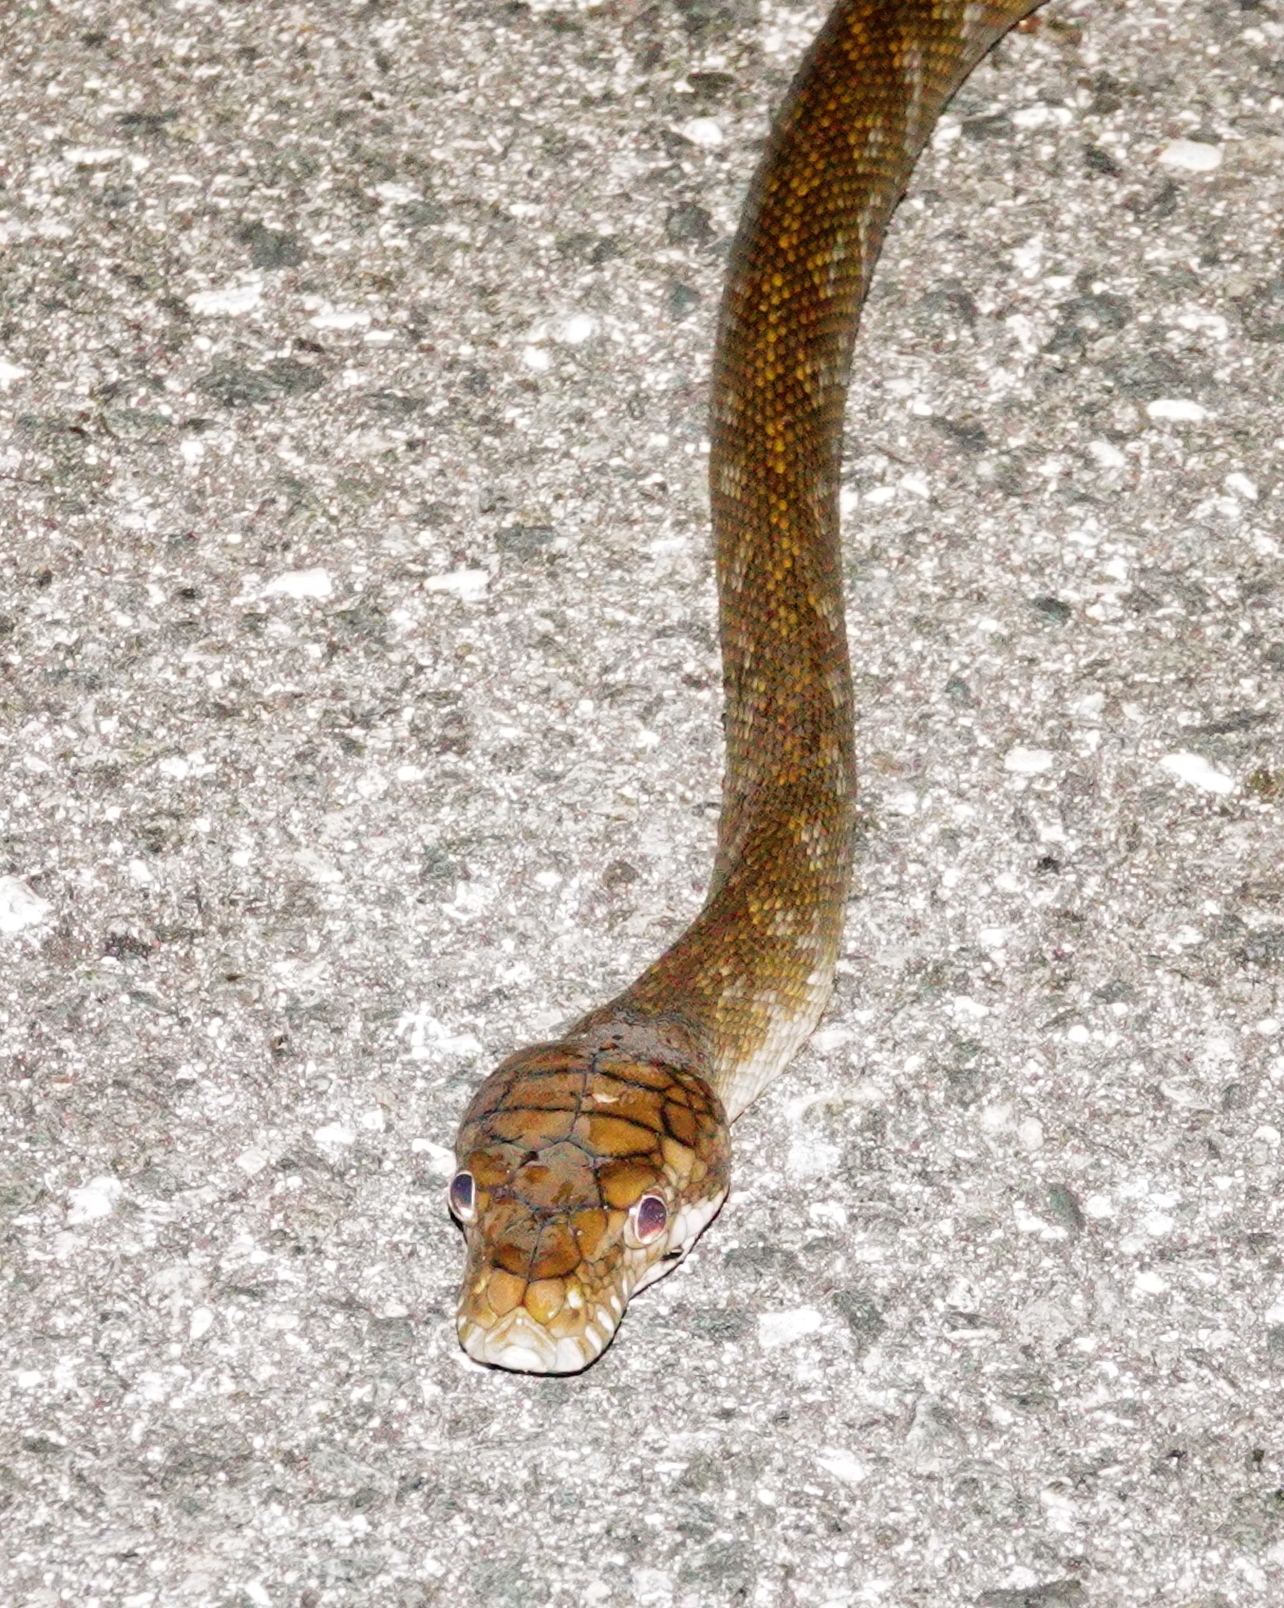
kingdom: Animalia
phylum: Chordata
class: Squamata
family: Pythonidae
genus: Simalia
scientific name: Simalia amethistina
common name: Amethystine or scrub python
